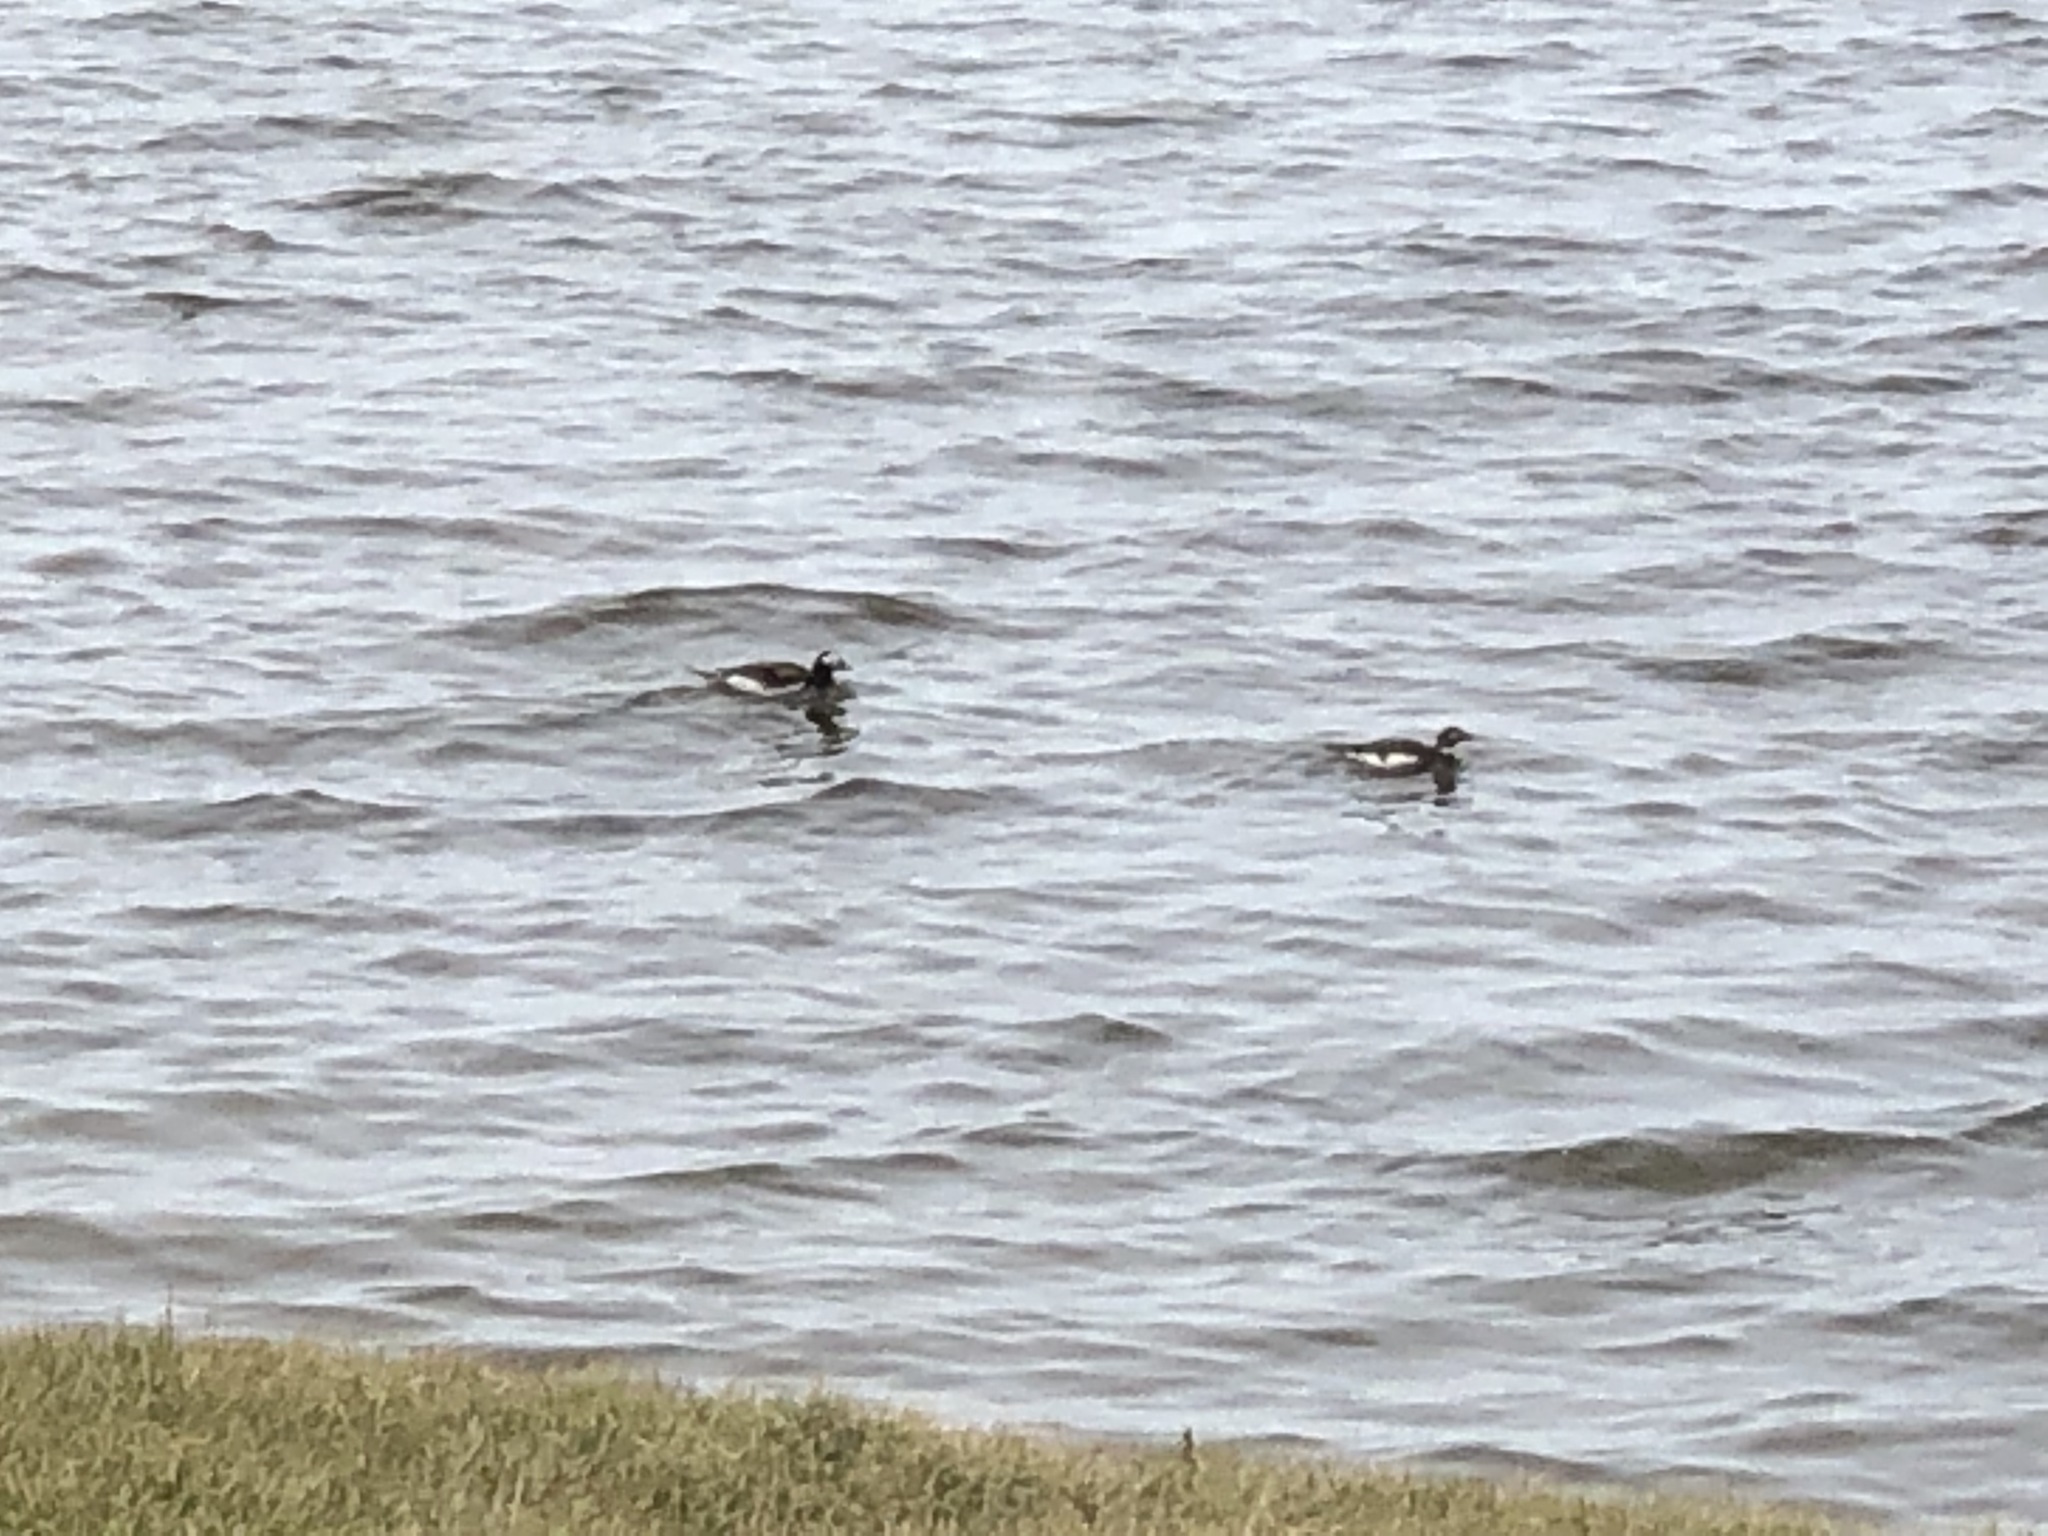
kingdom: Animalia
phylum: Chordata
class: Aves
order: Anseriformes
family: Anatidae
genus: Clangula
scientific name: Clangula hyemalis
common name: Long-tailed duck
